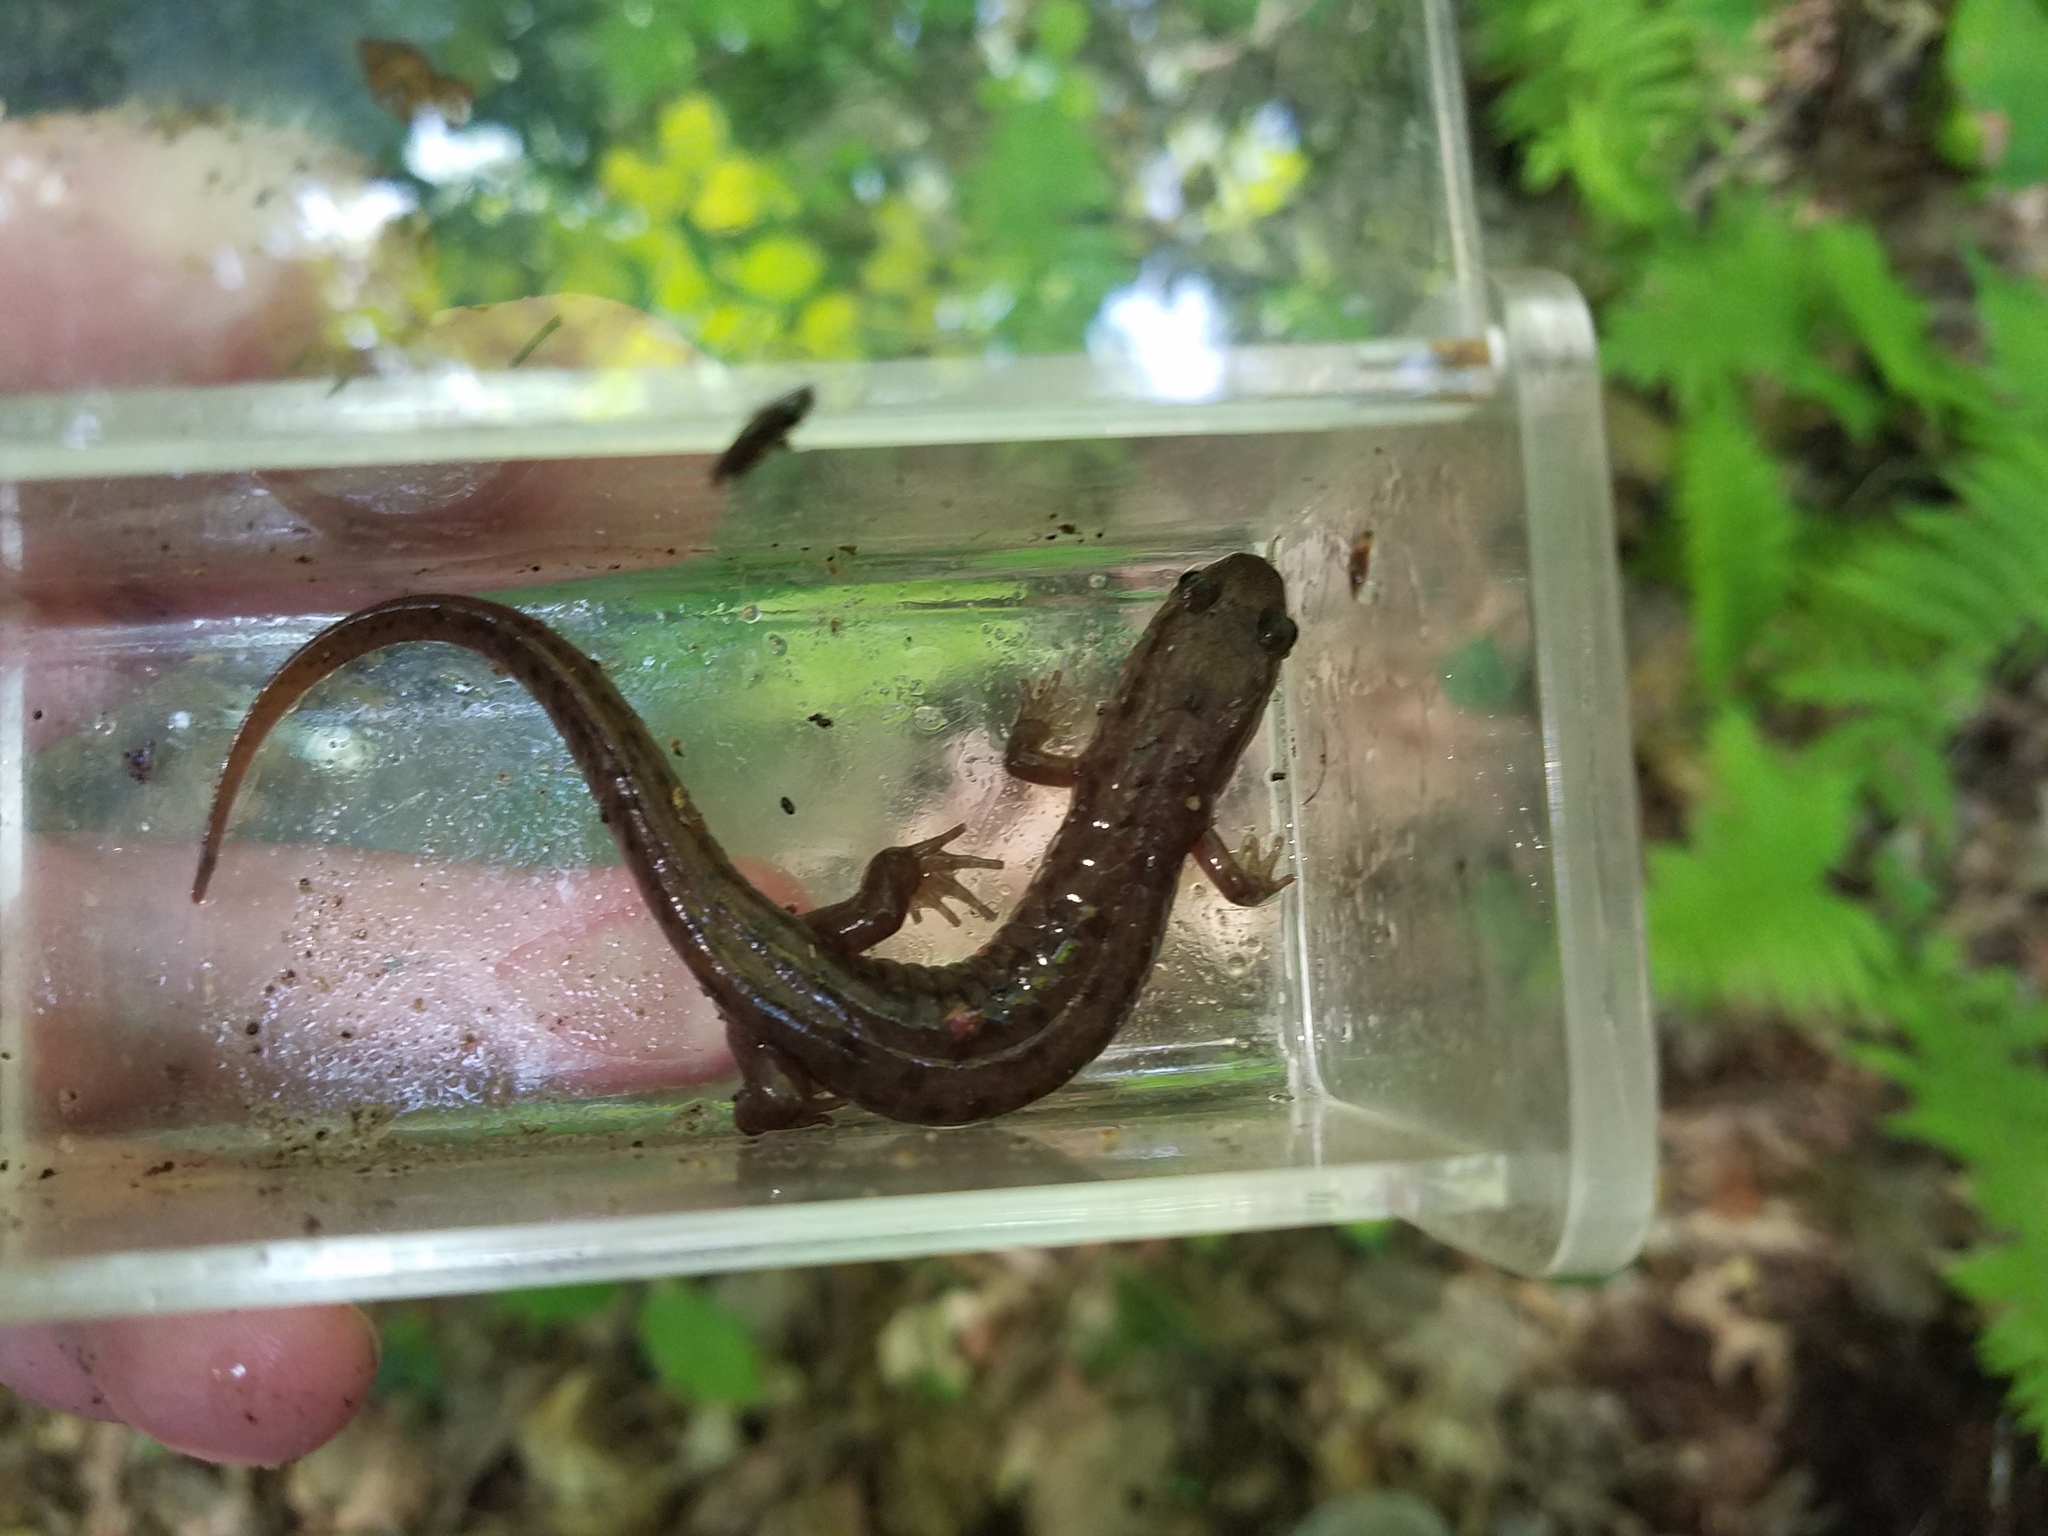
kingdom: Animalia
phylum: Chordata
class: Amphibia
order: Caudata
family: Plethodontidae
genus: Desmognathus
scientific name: Desmognathus monticola
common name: Seal salamander
